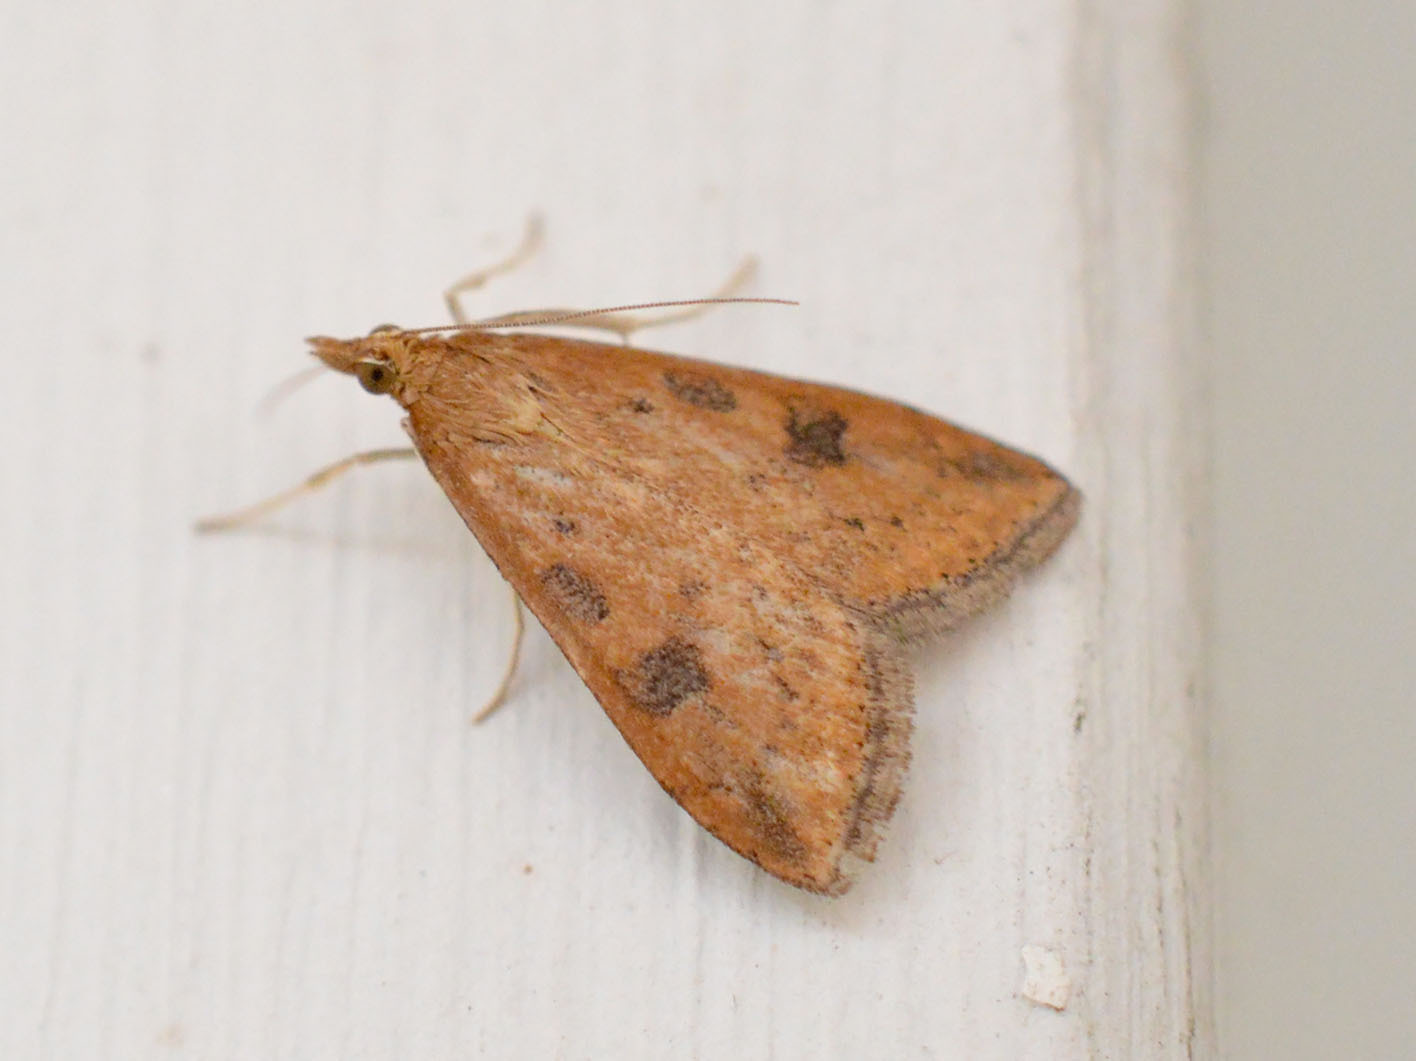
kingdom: Animalia
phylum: Arthropoda
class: Insecta
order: Lepidoptera
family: Crambidae
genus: Udea
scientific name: Udea ferrugalis
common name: Rusty dot
